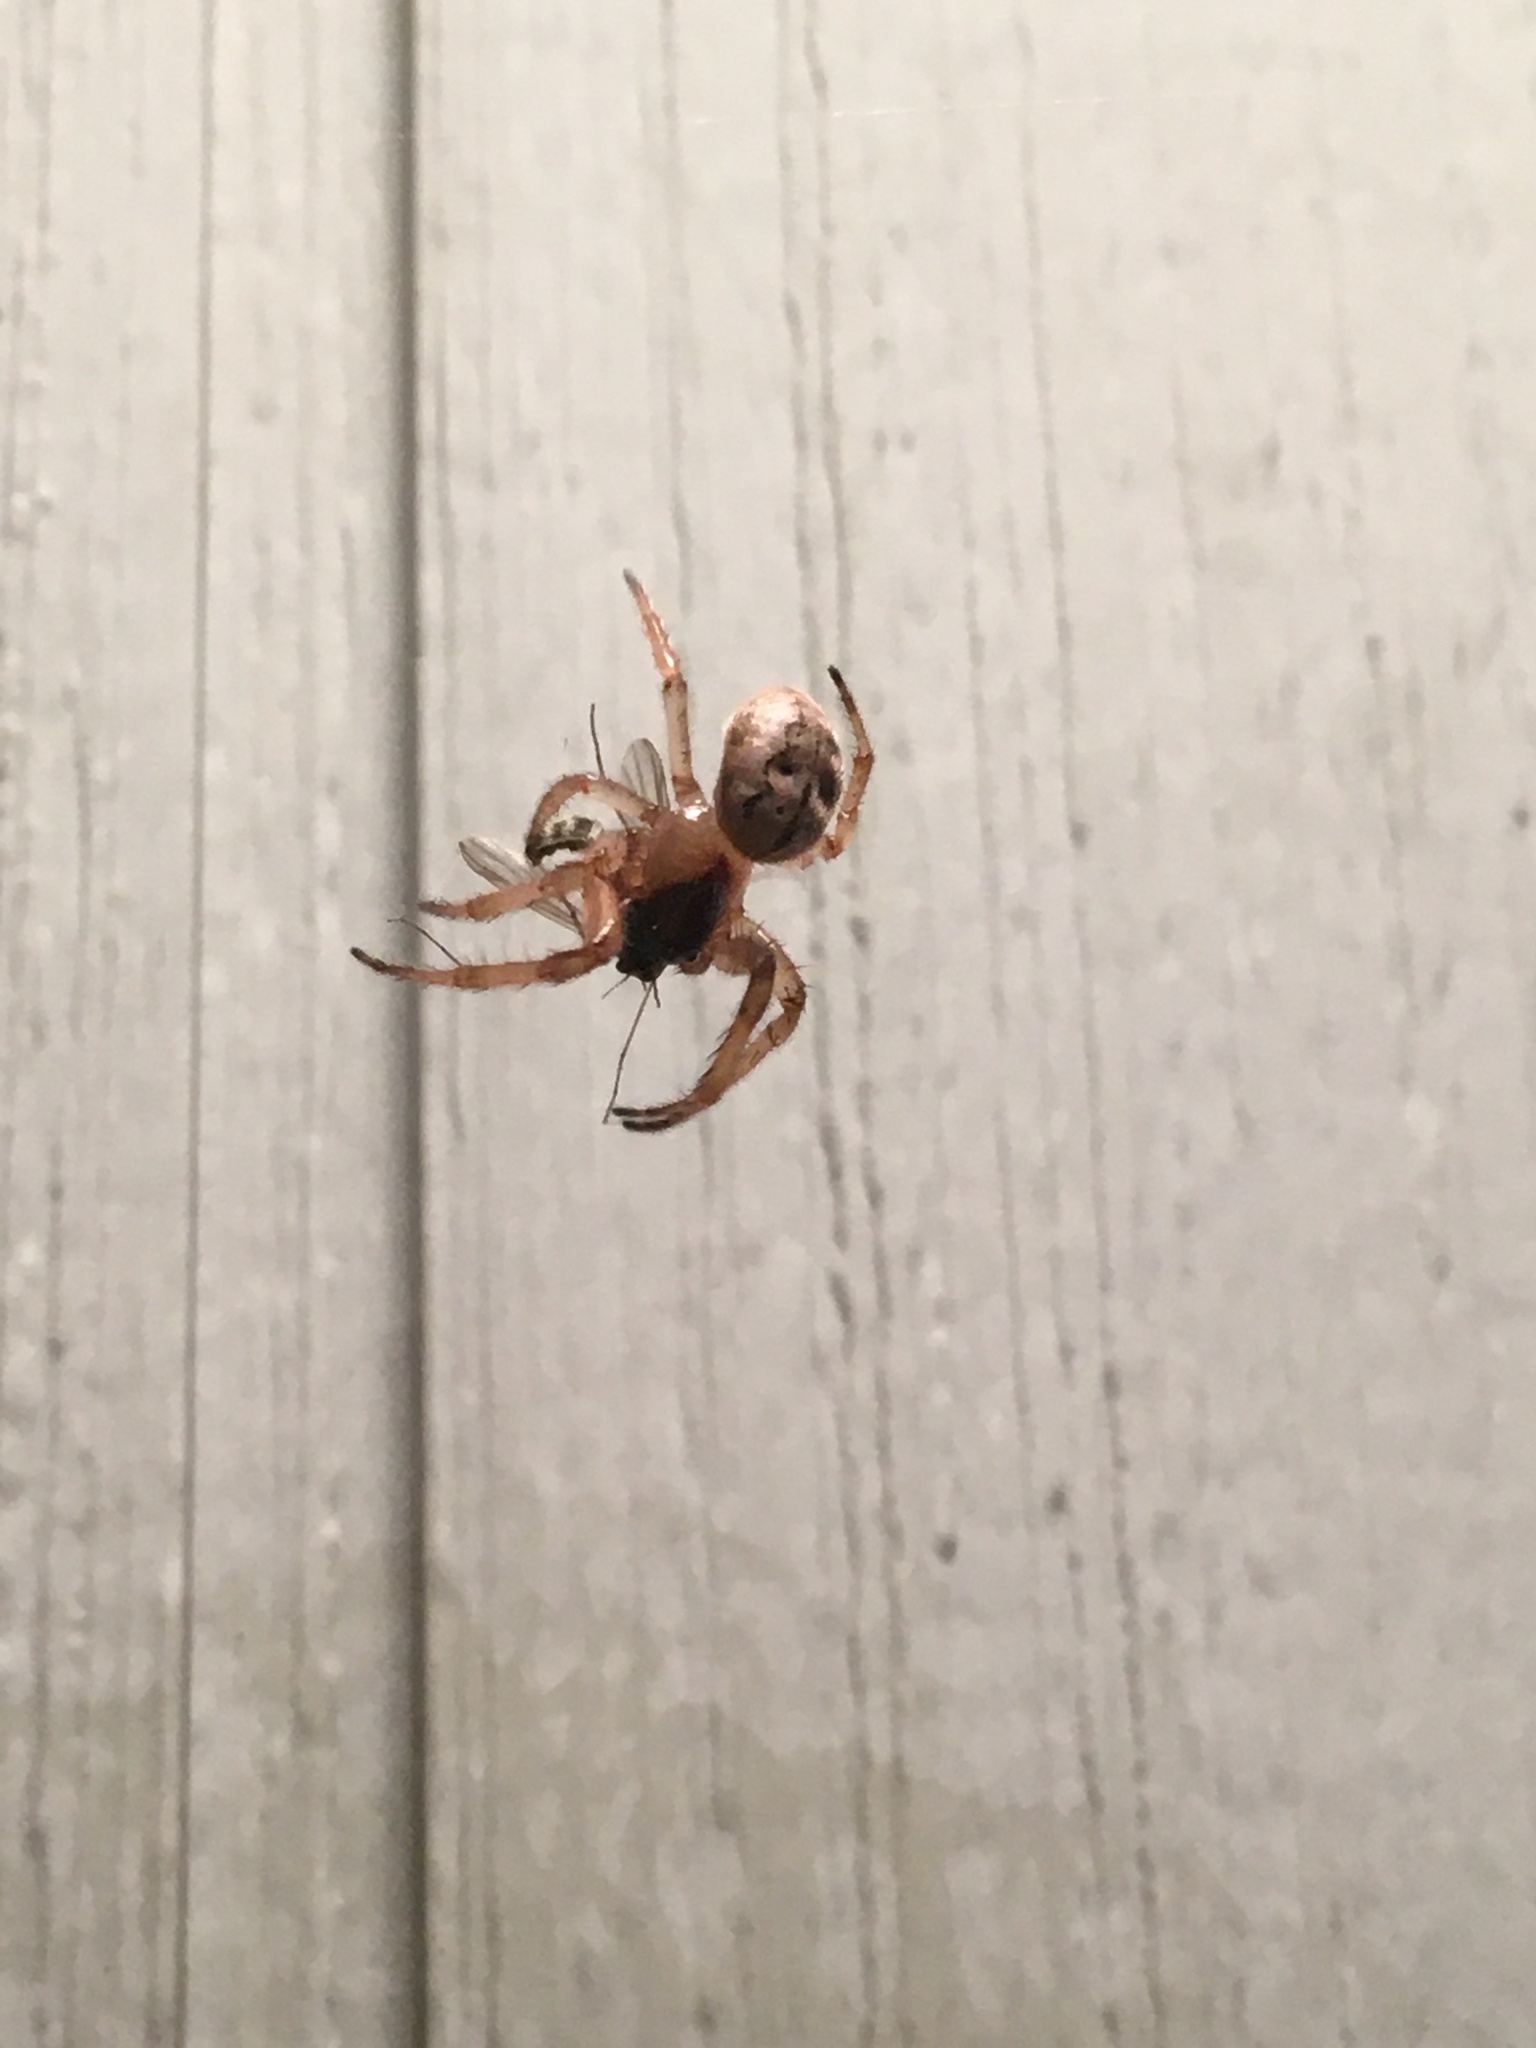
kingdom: Animalia
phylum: Arthropoda
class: Arachnida
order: Araneae
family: Araneidae
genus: Metazygia
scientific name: Metazygia wittfeldae
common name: Orb weavers
